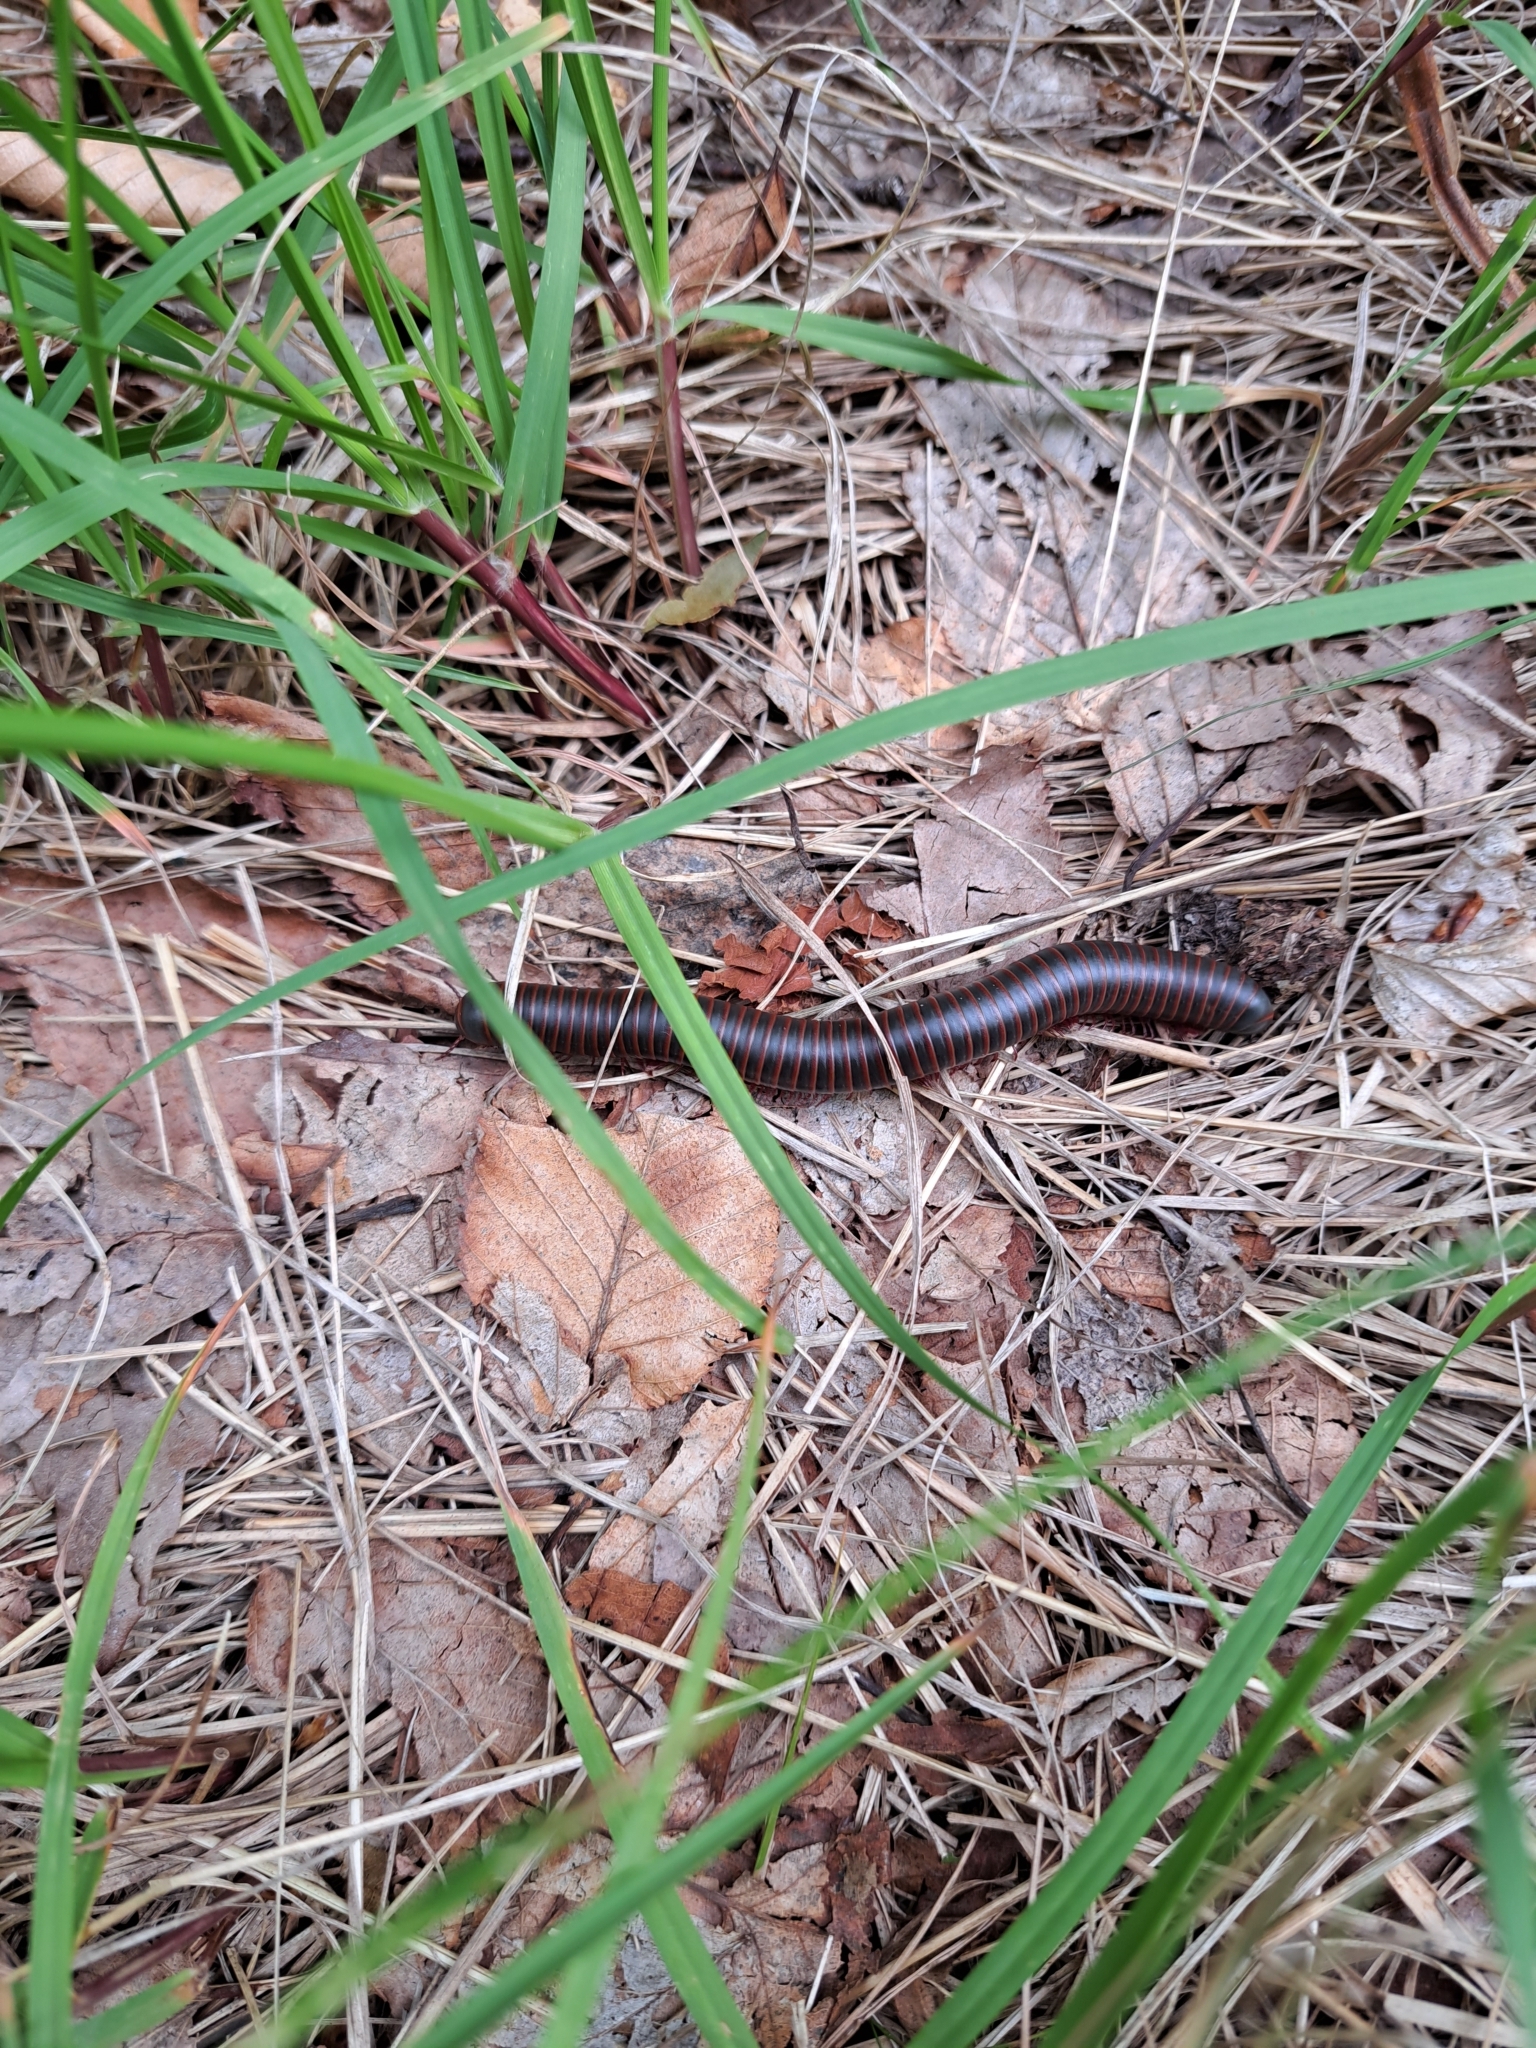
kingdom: Animalia
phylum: Arthropoda
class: Diplopoda
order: Spirobolida
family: Spirobolidae
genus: Narceus
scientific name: Narceus americanus
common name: American giant millipede
